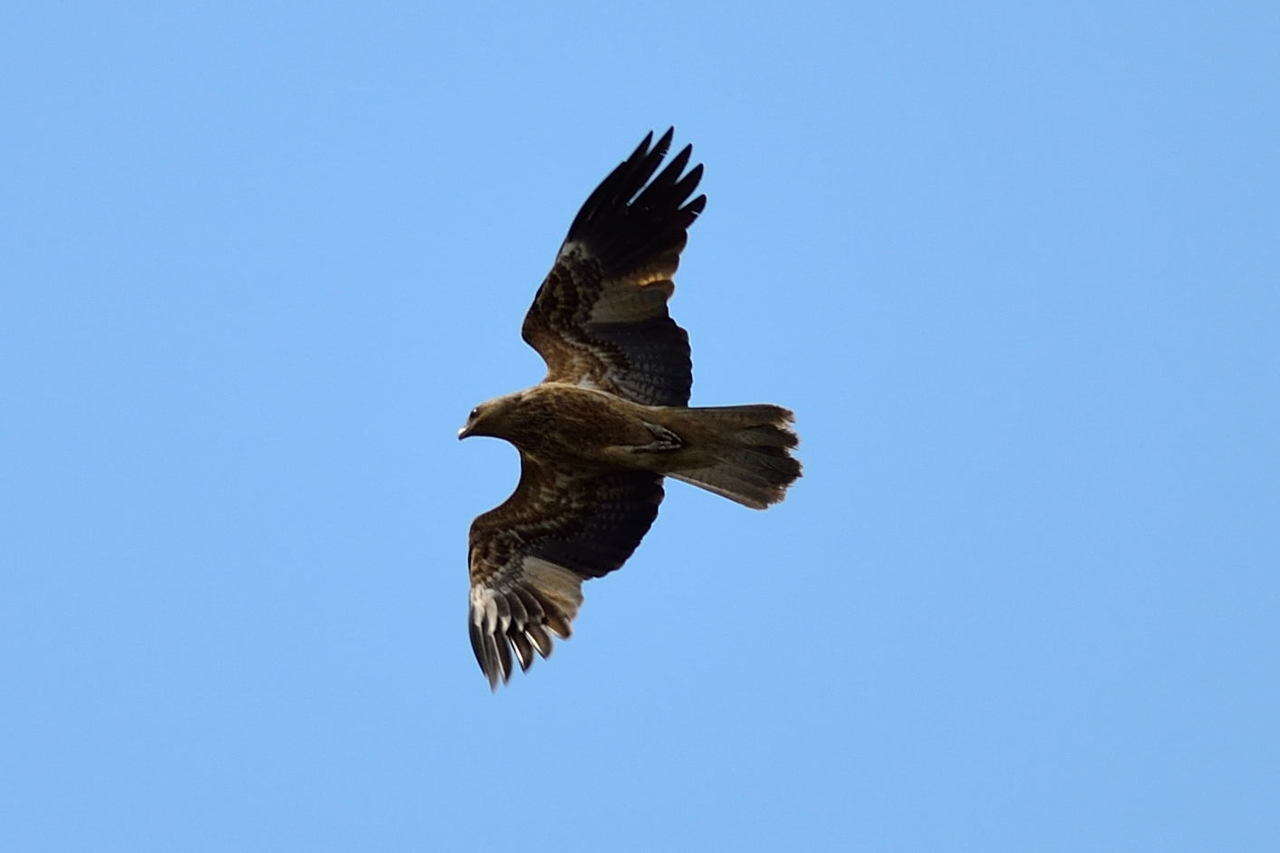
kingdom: Animalia
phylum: Chordata
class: Aves
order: Accipitriformes
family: Accipitridae
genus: Haliastur
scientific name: Haliastur sphenurus
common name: Whistling kite
